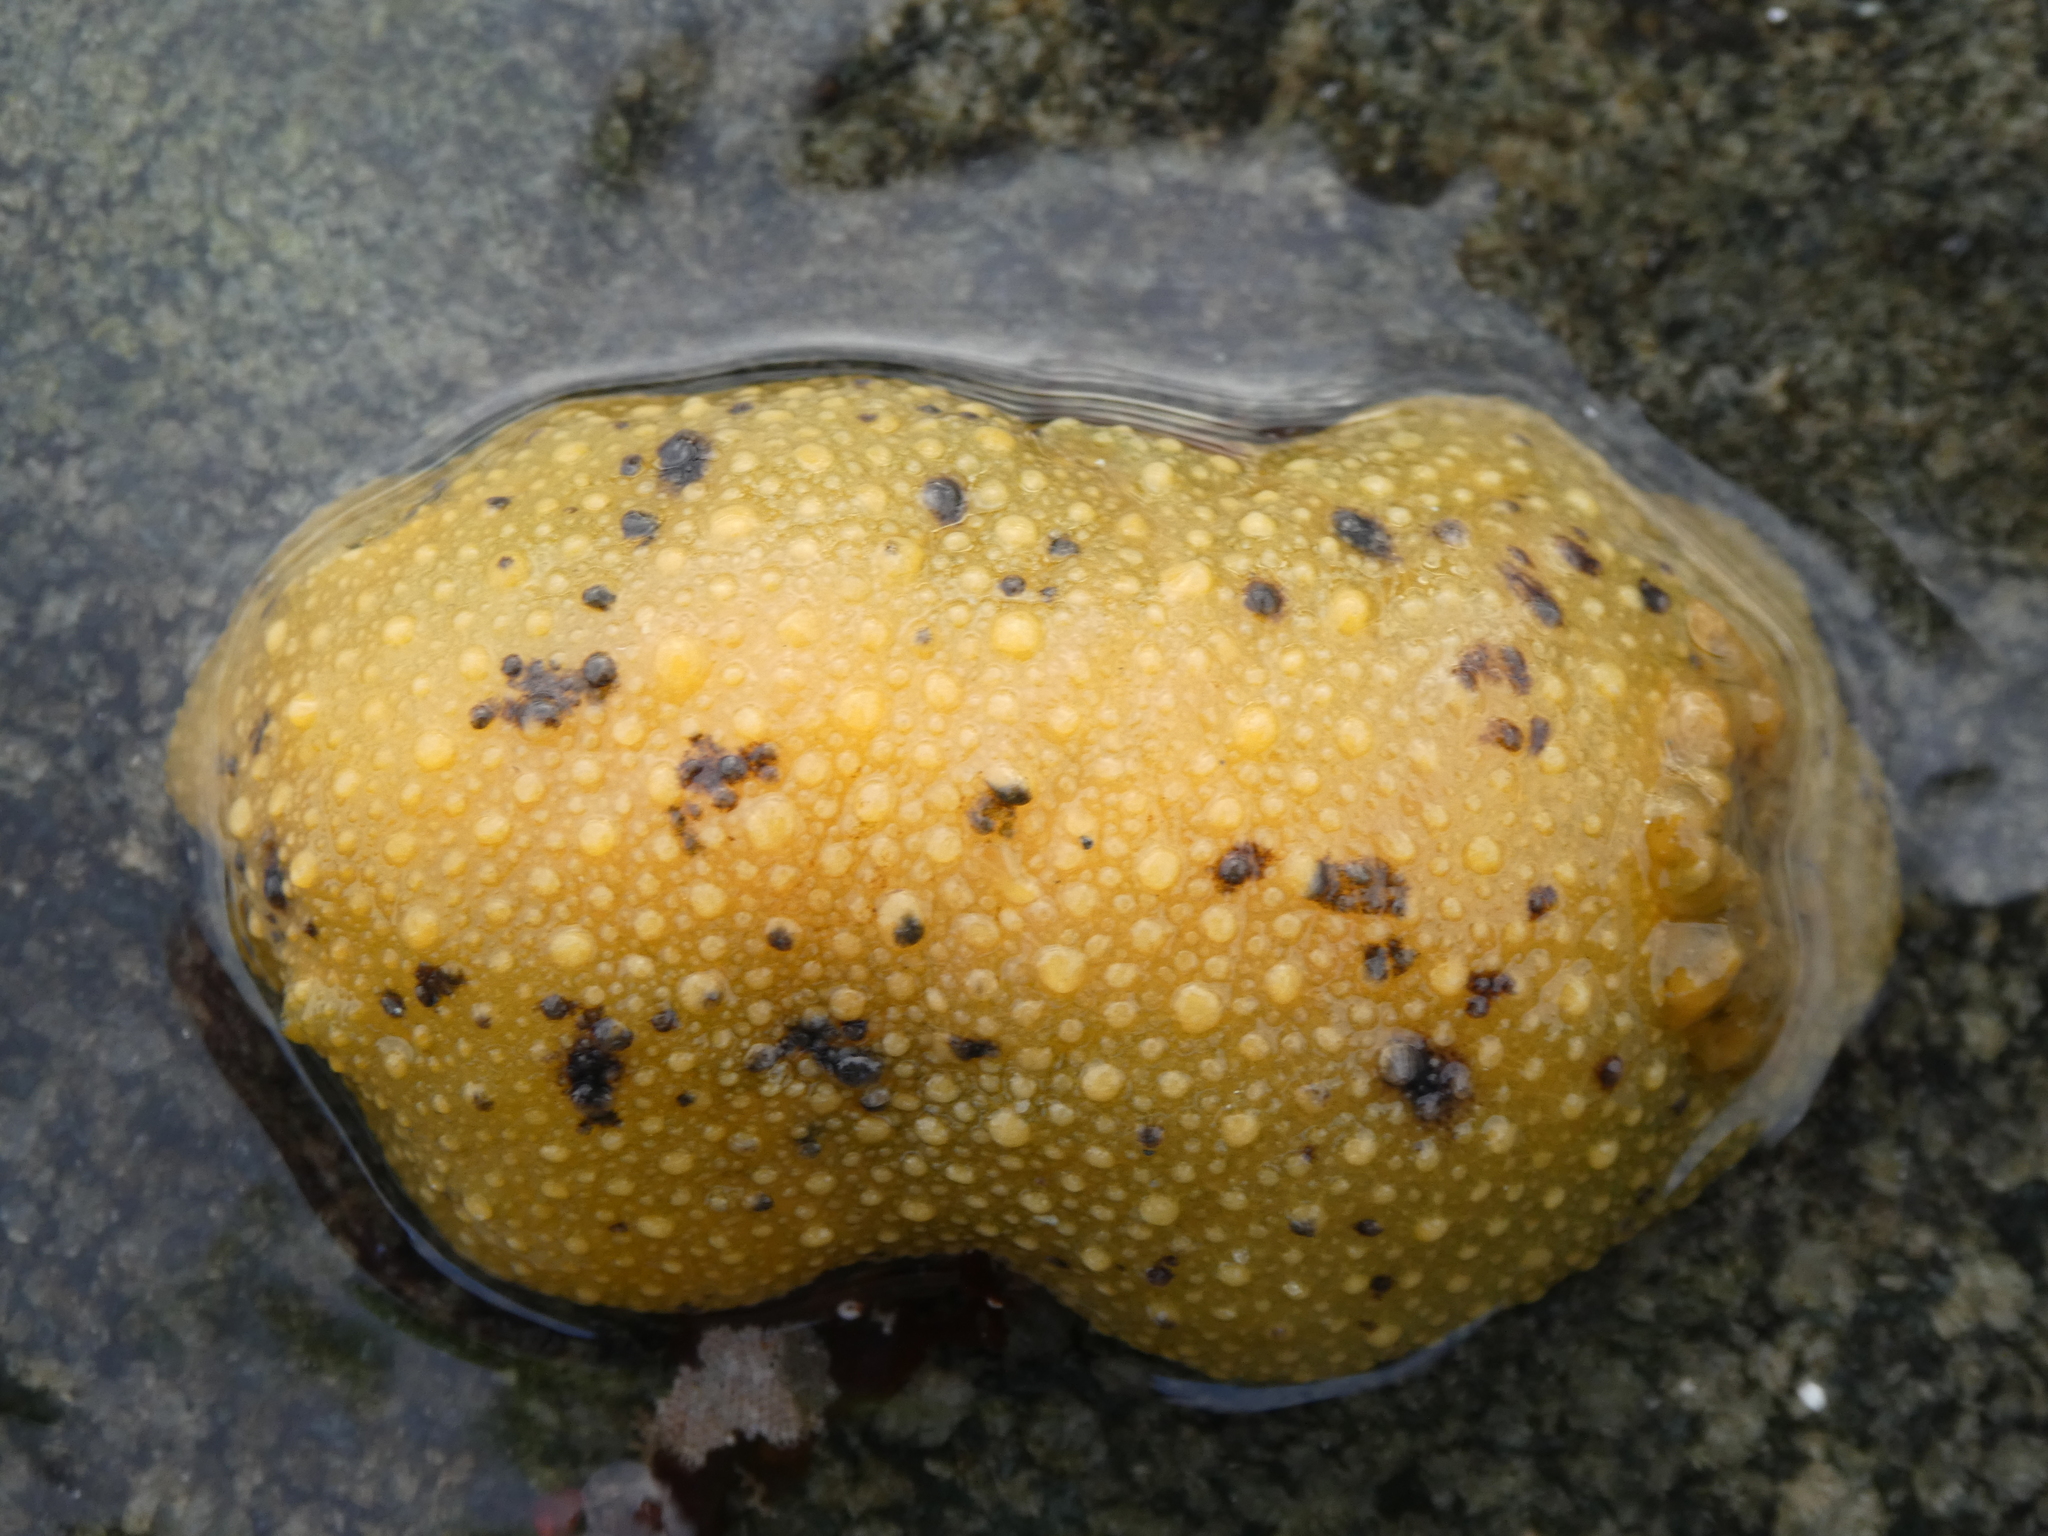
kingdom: Animalia
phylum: Mollusca
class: Gastropoda
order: Nudibranchia
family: Dorididae
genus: Doris
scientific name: Doris montereyensis
